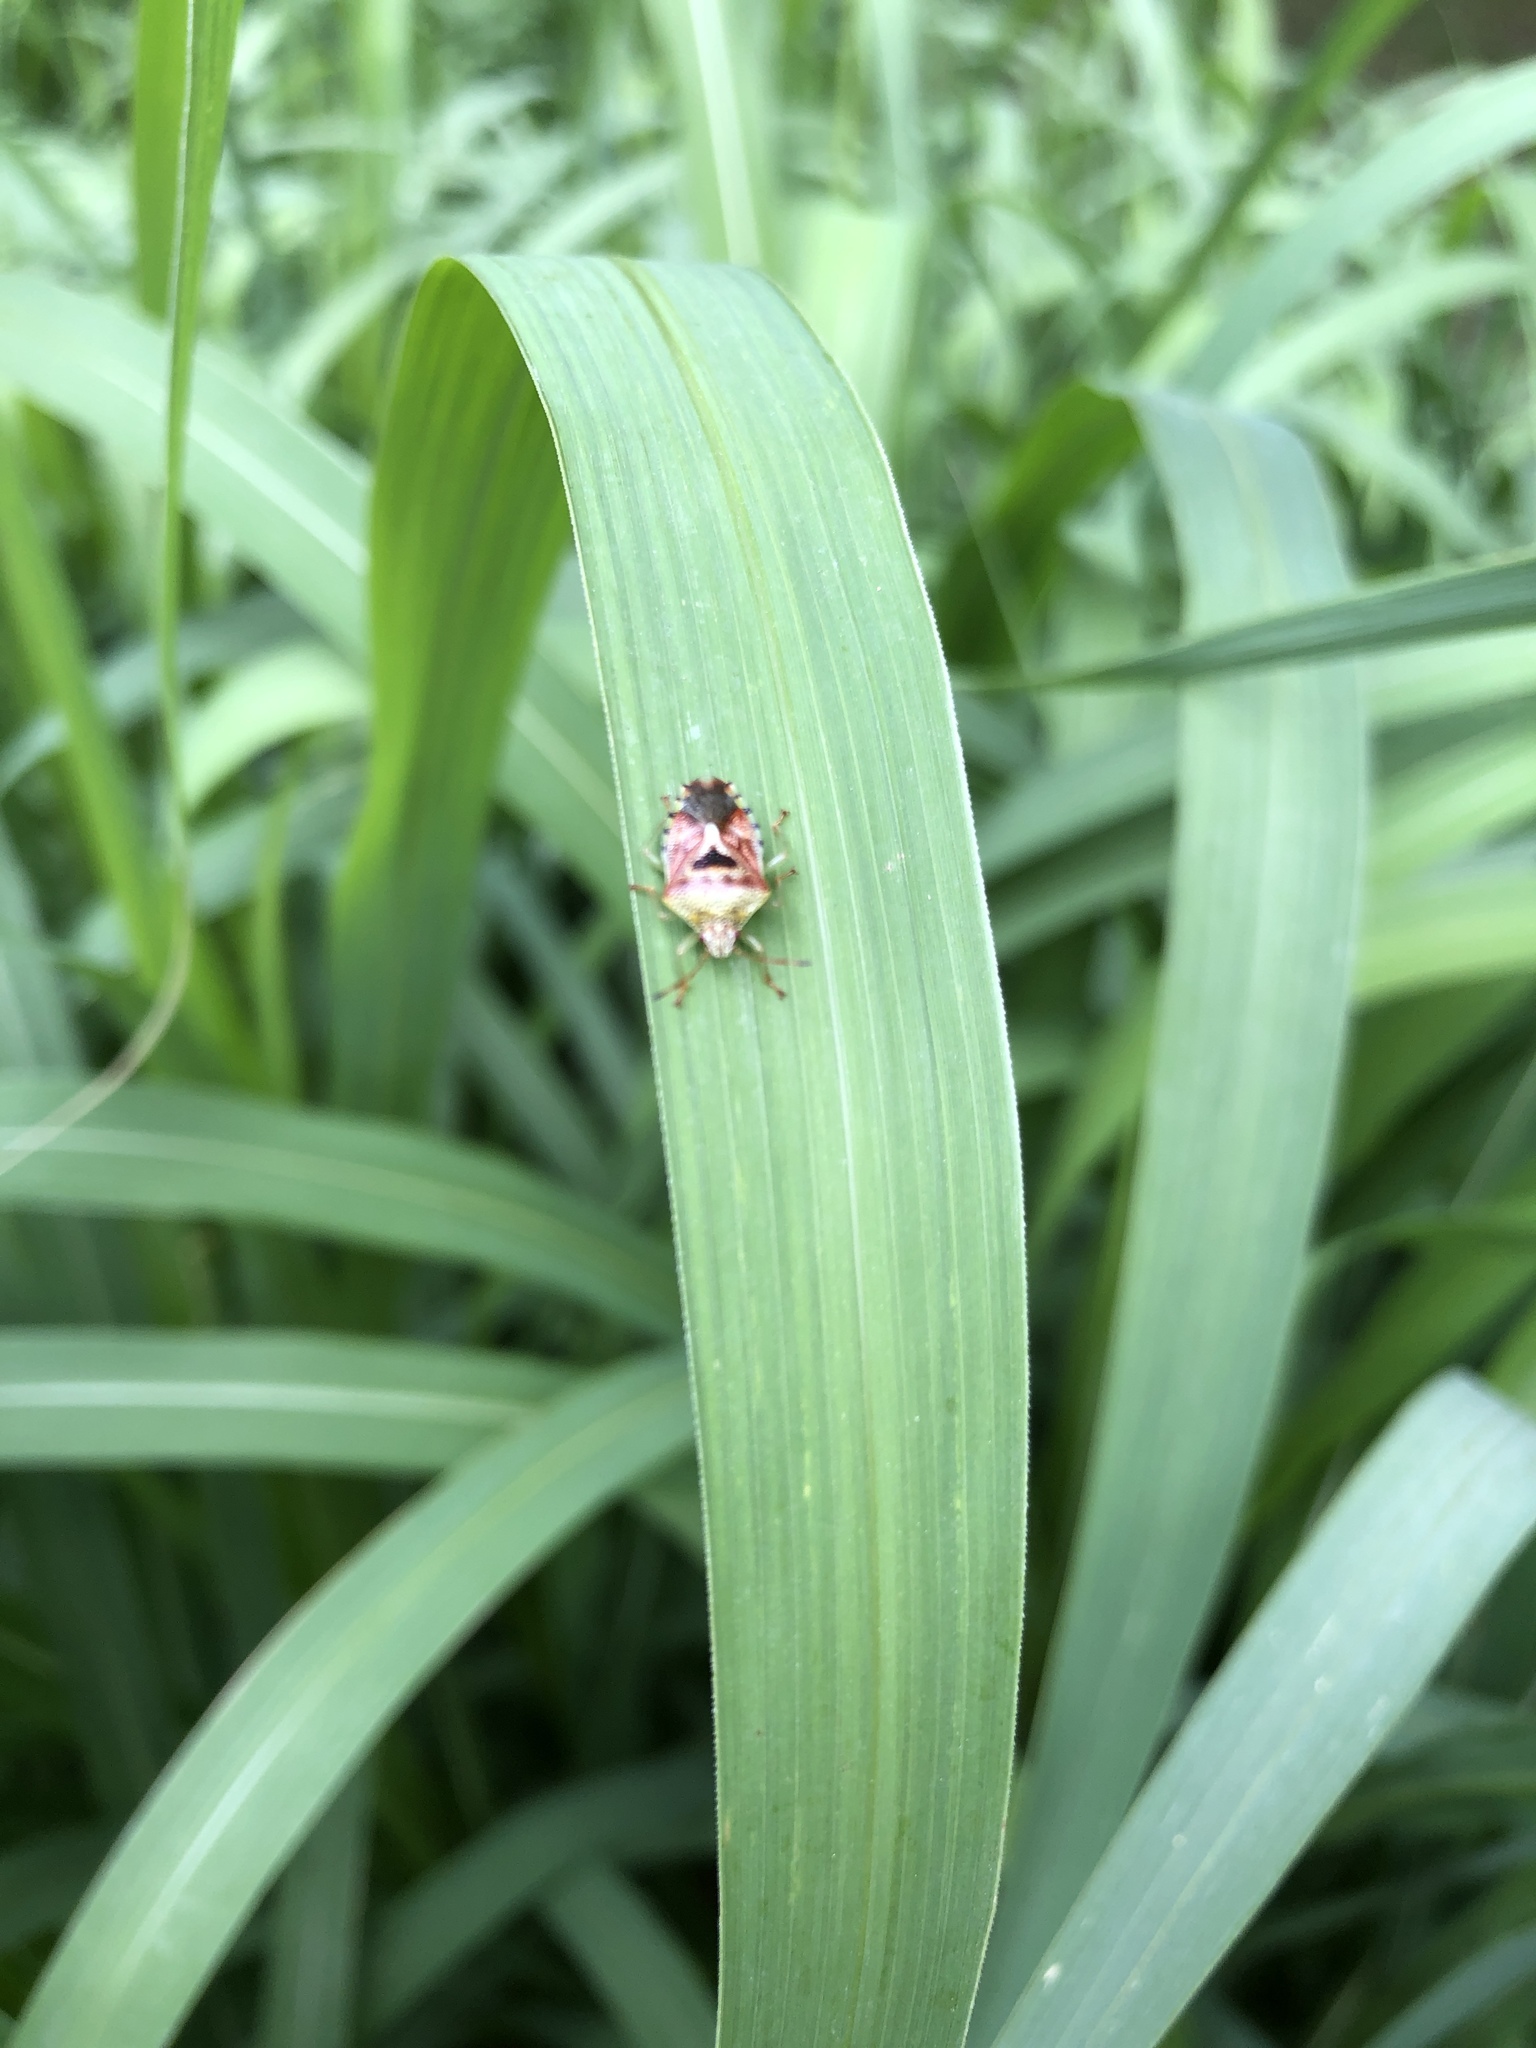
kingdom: Animalia
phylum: Arthropoda
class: Insecta
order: Hemiptera
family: Acanthosomatidae
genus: Elasmucha
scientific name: Elasmucha grisea
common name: Parent bug
